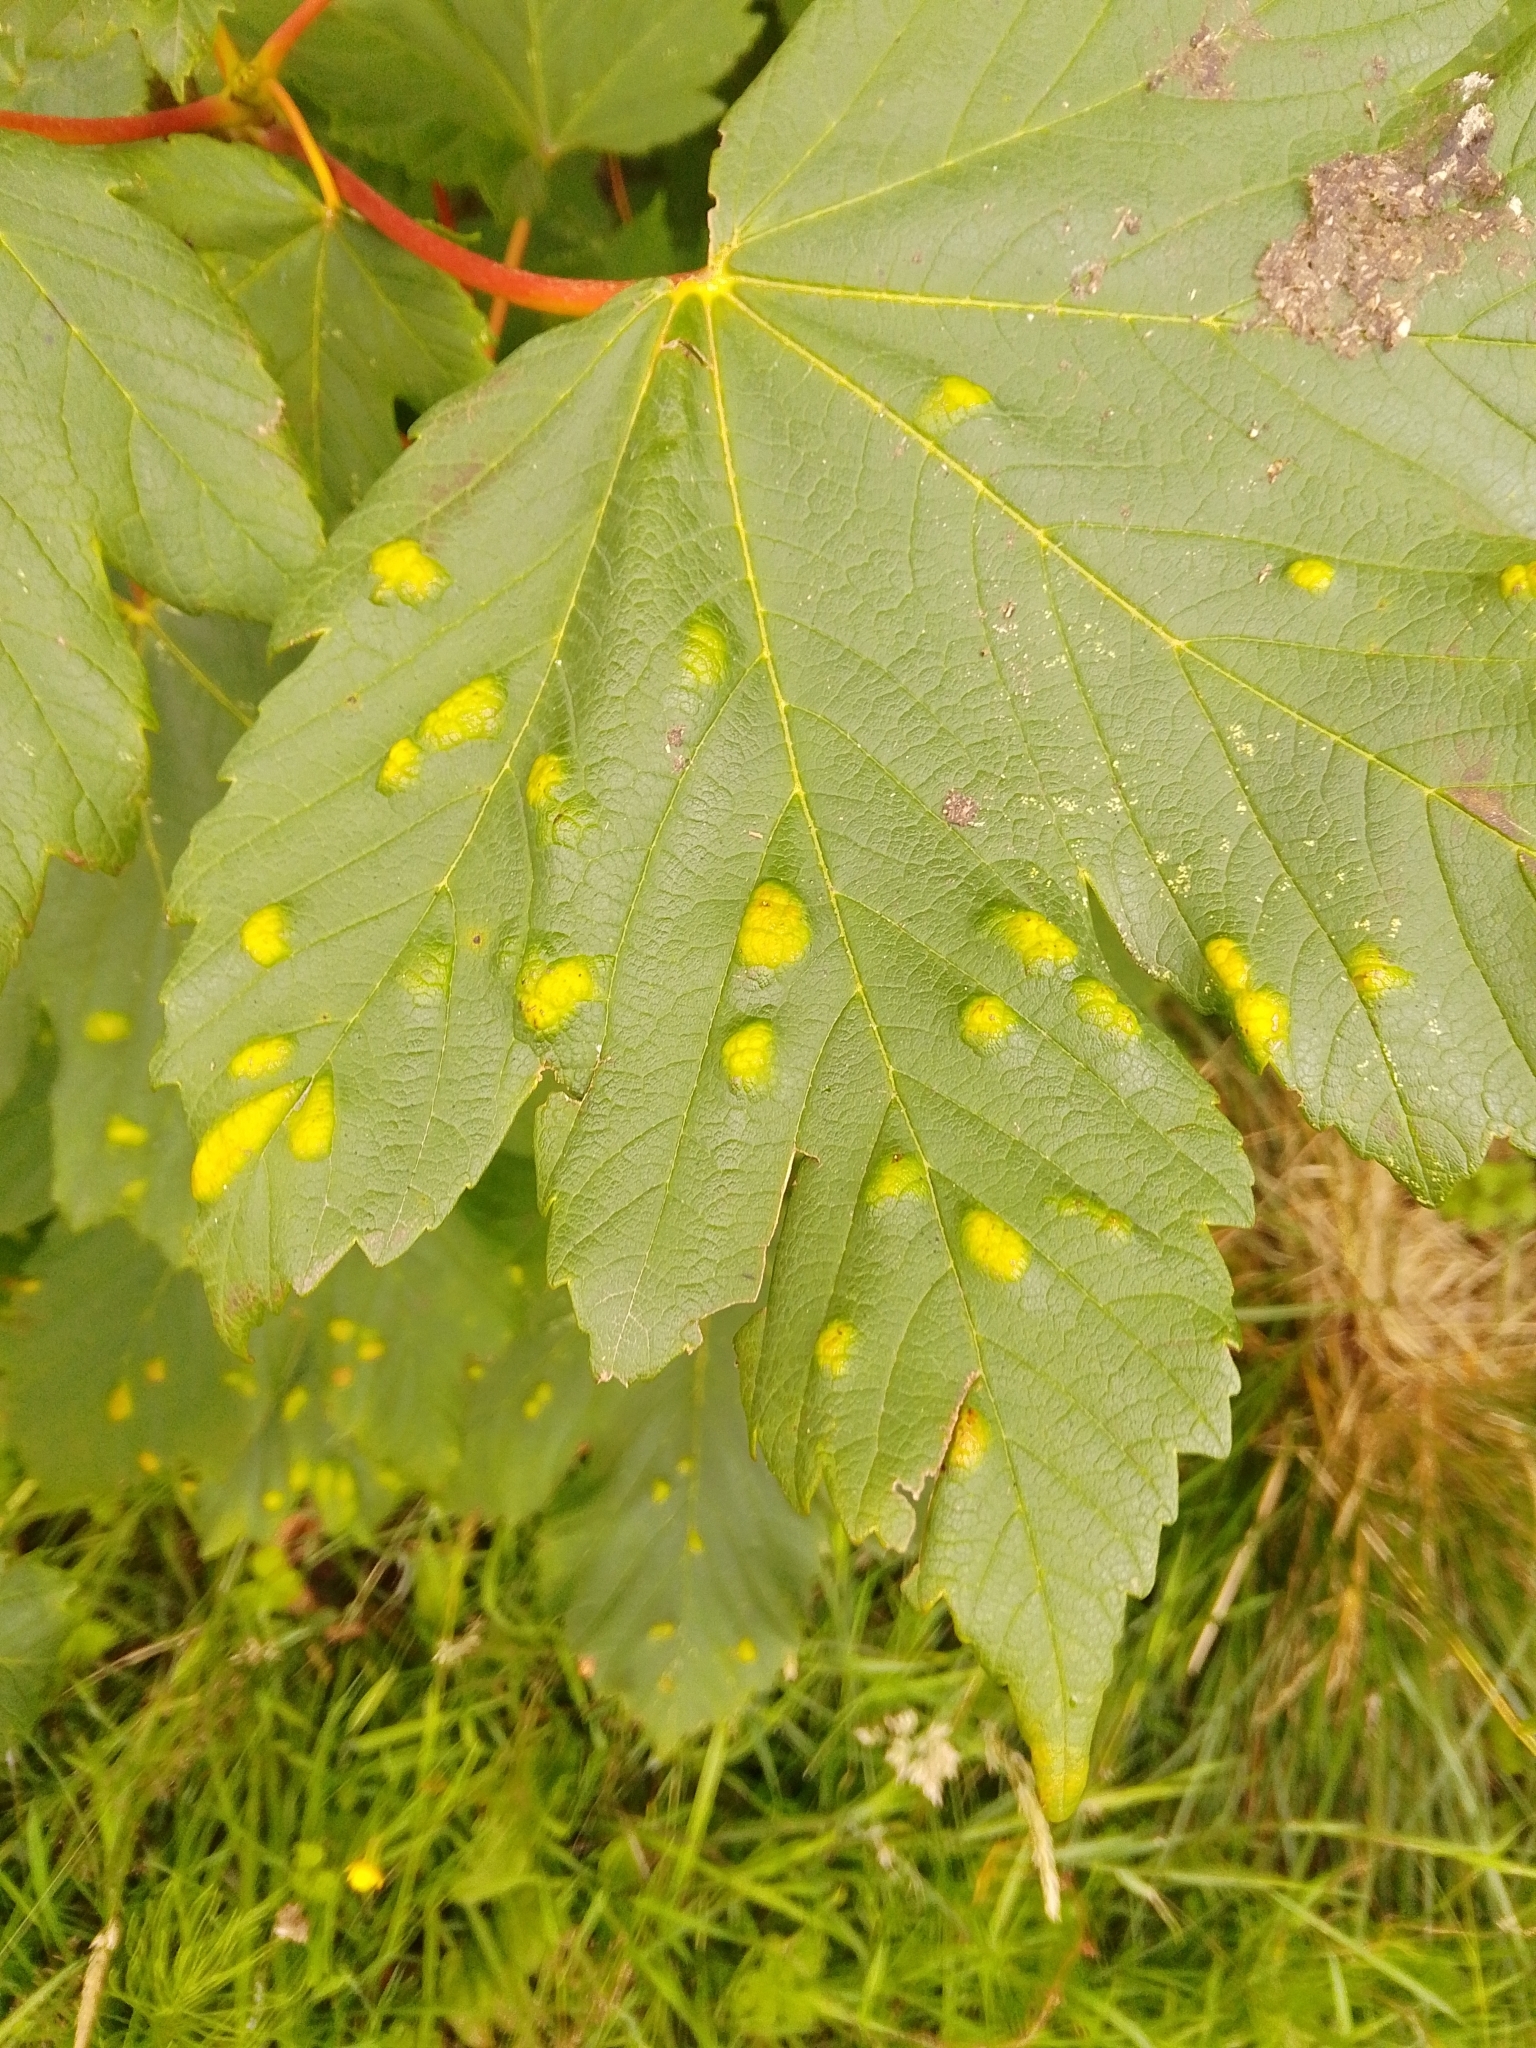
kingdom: Animalia
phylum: Arthropoda
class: Arachnida
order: Trombidiformes
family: Eriophyidae
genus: Aceria
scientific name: Aceria pseudoplatani
